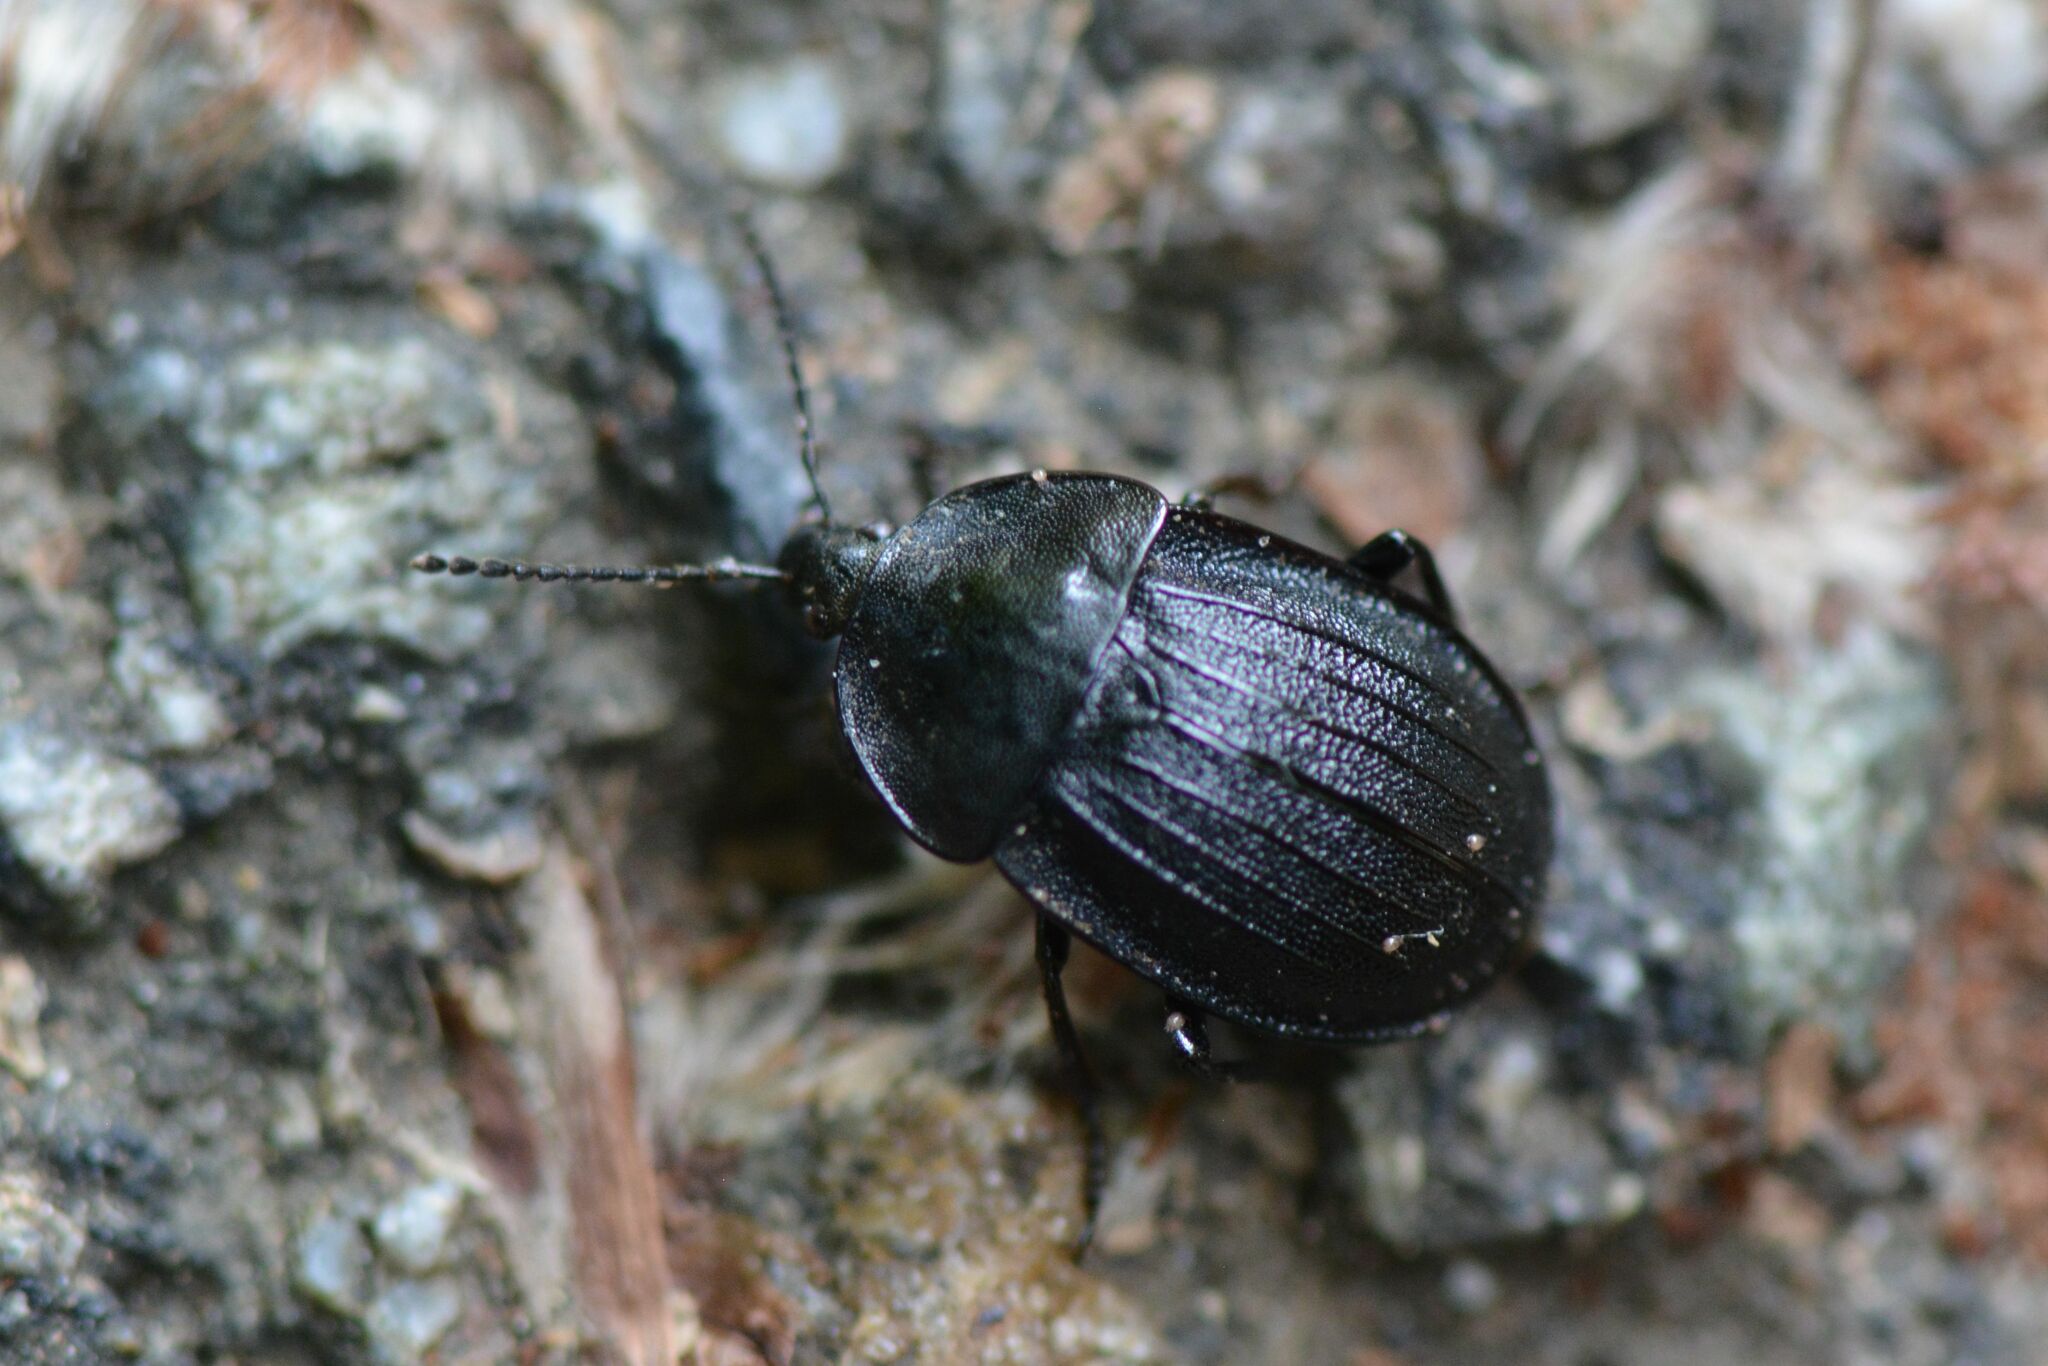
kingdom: Animalia
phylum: Arthropoda
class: Insecta
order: Coleoptera
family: Staphylinidae
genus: Silpha
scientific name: Silpha atrata
